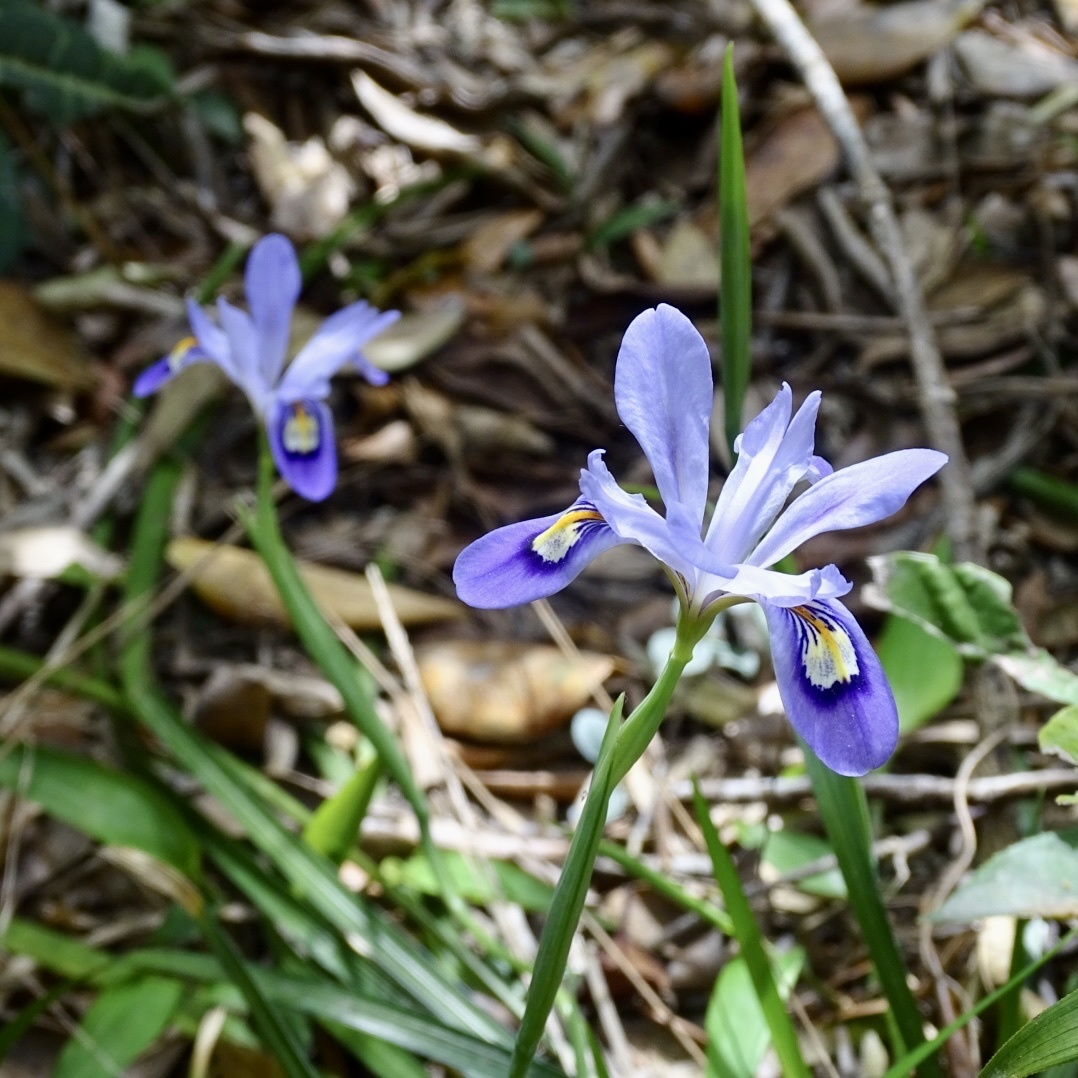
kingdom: Plantae
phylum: Tracheophyta
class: Liliopsida
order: Asparagales
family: Iridaceae
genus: Iris
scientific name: Iris speculatrix
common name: Small-flower iris
